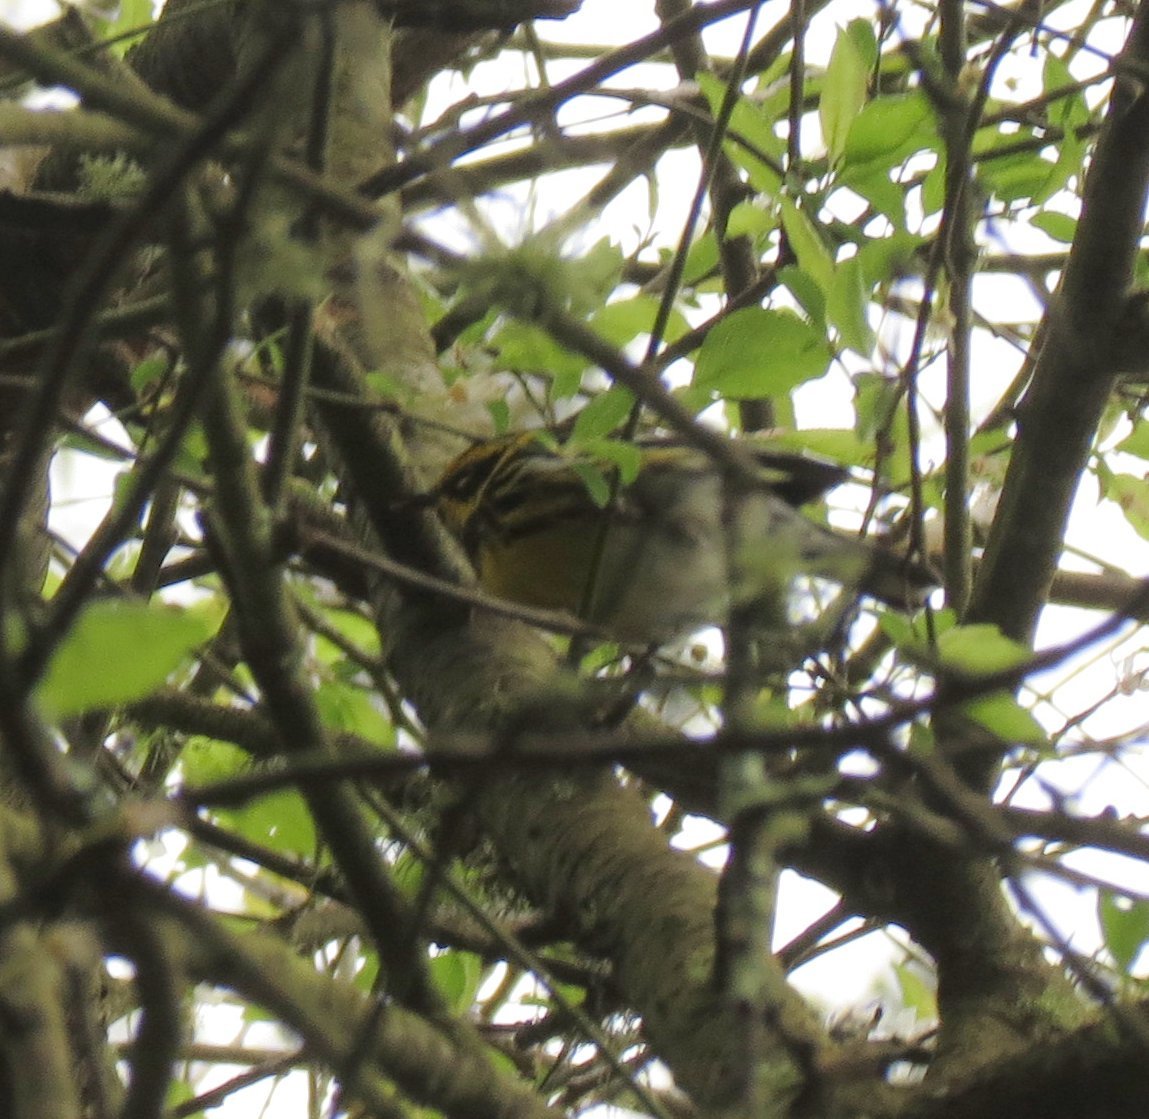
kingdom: Animalia
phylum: Chordata
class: Aves
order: Passeriformes
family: Parulidae
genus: Setophaga
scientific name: Setophaga townsendi
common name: Townsend's warbler
